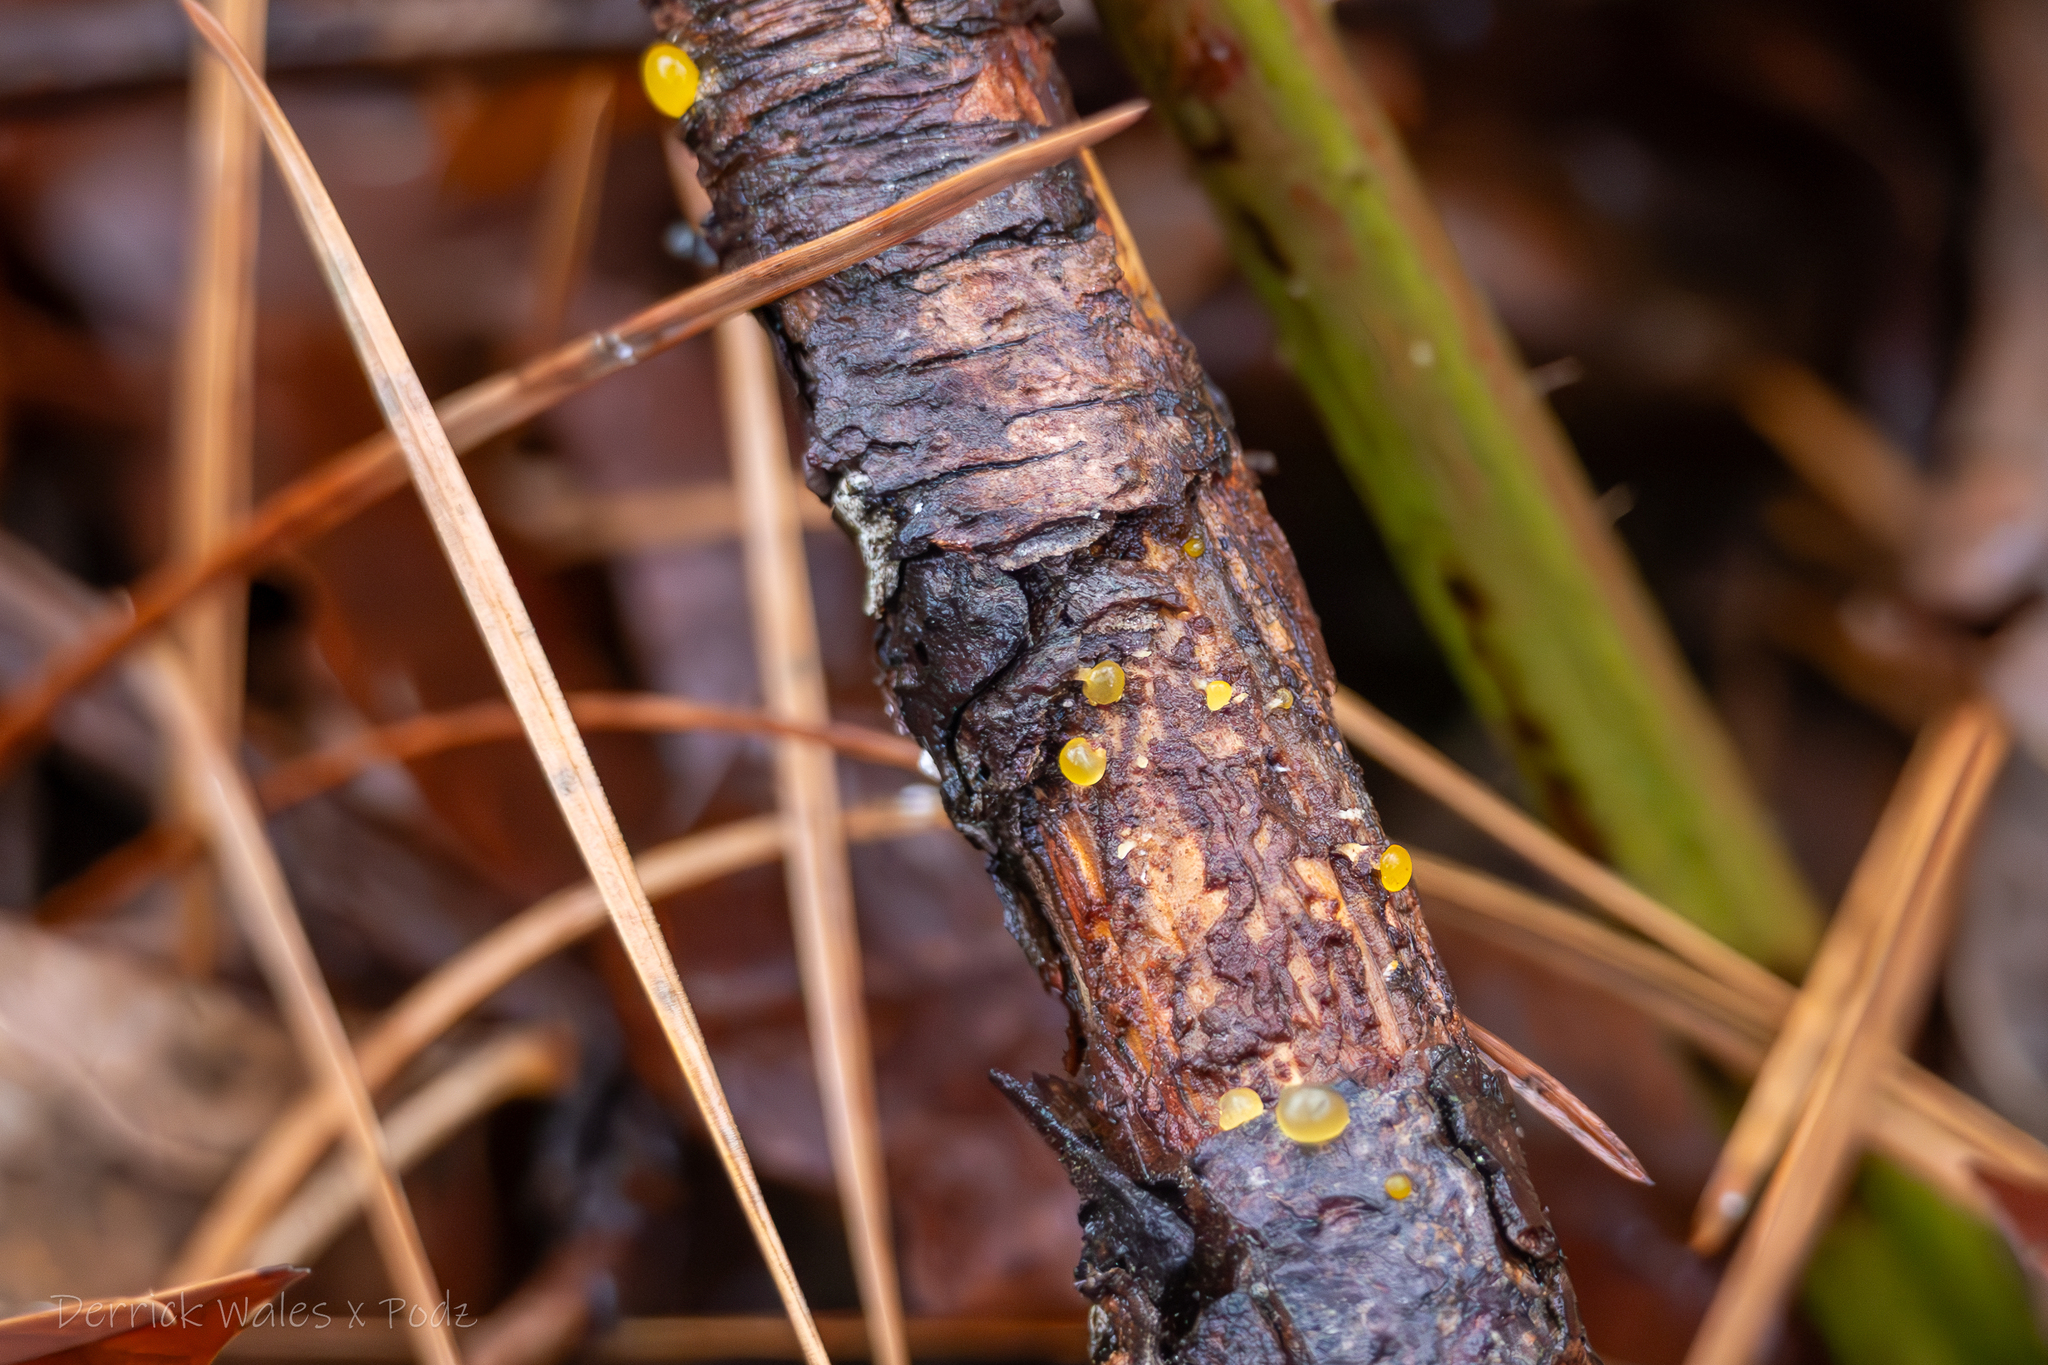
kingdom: Fungi
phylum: Basidiomycota
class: Dacrymycetes
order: Dacrymycetales
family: Dacrymycetaceae
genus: Dacrymyces
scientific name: Dacrymyces stillatus
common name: Common jelly spot
